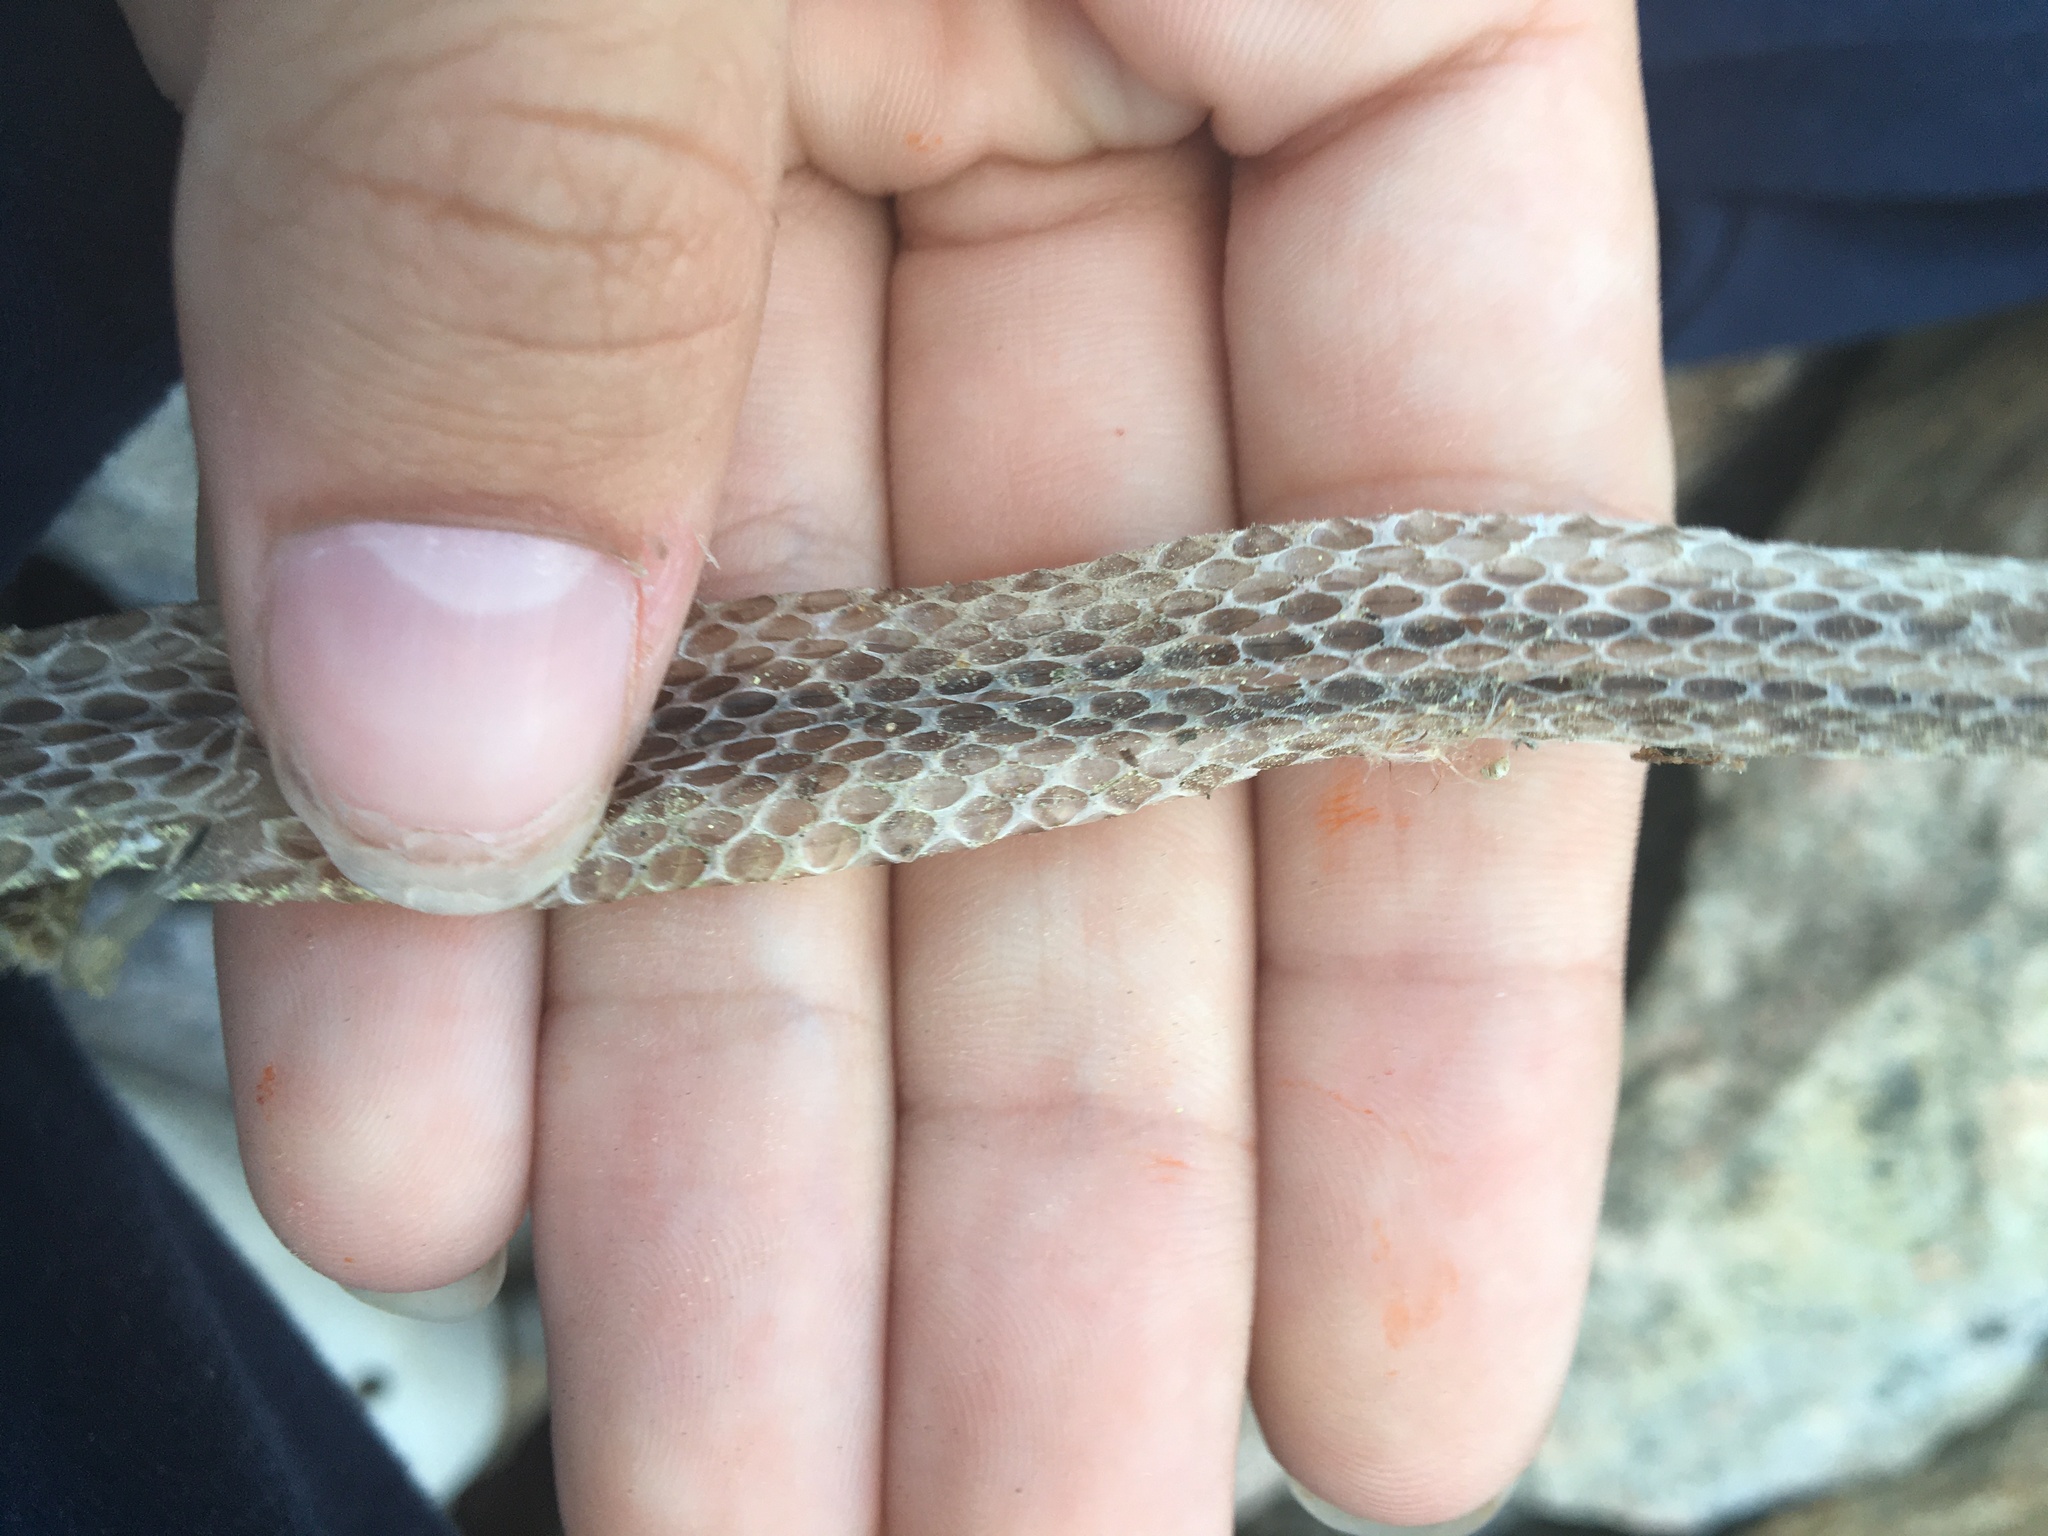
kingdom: Animalia
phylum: Chordata
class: Squamata
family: Colubridae
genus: Thamnophis
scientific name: Thamnophis sirtalis
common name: Common garter snake
